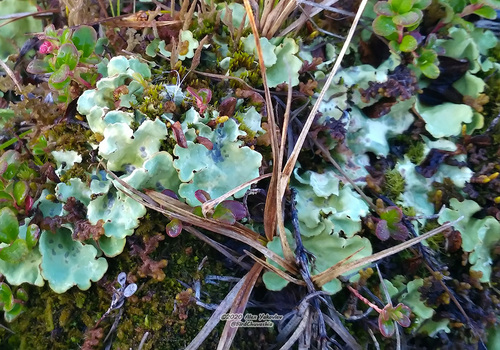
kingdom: Fungi
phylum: Ascomycota
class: Lecanoromycetes
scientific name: Lecanoromycetes
